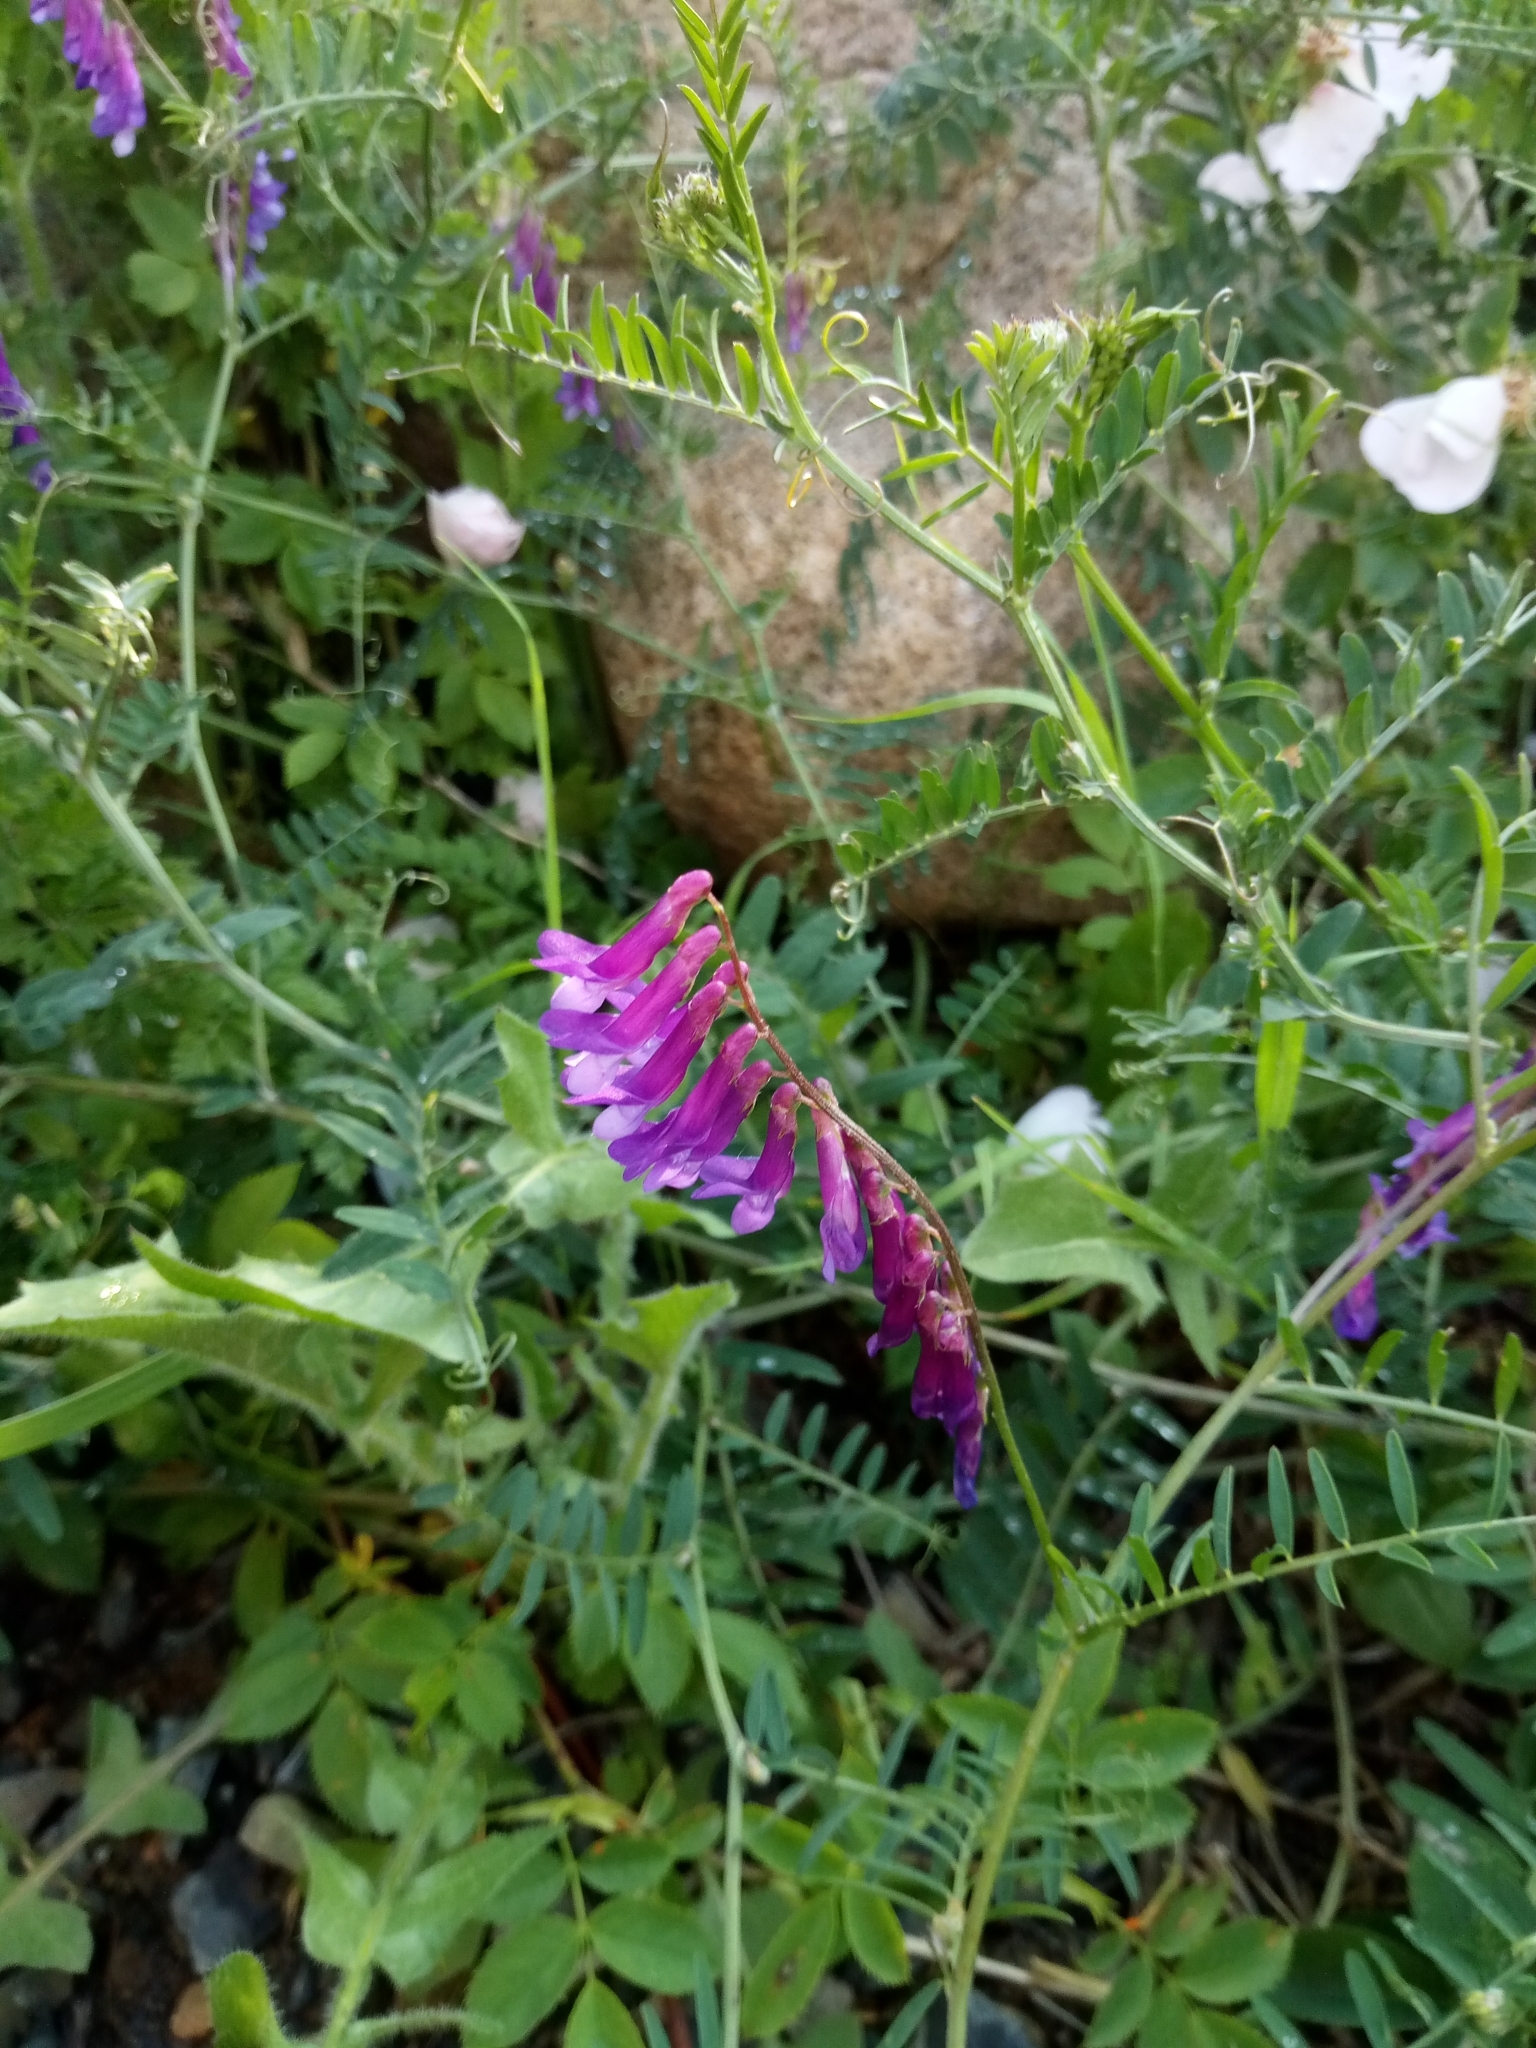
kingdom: Plantae
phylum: Tracheophyta
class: Magnoliopsida
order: Fabales
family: Fabaceae
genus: Vicia
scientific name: Vicia villosa
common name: Fodder vetch
